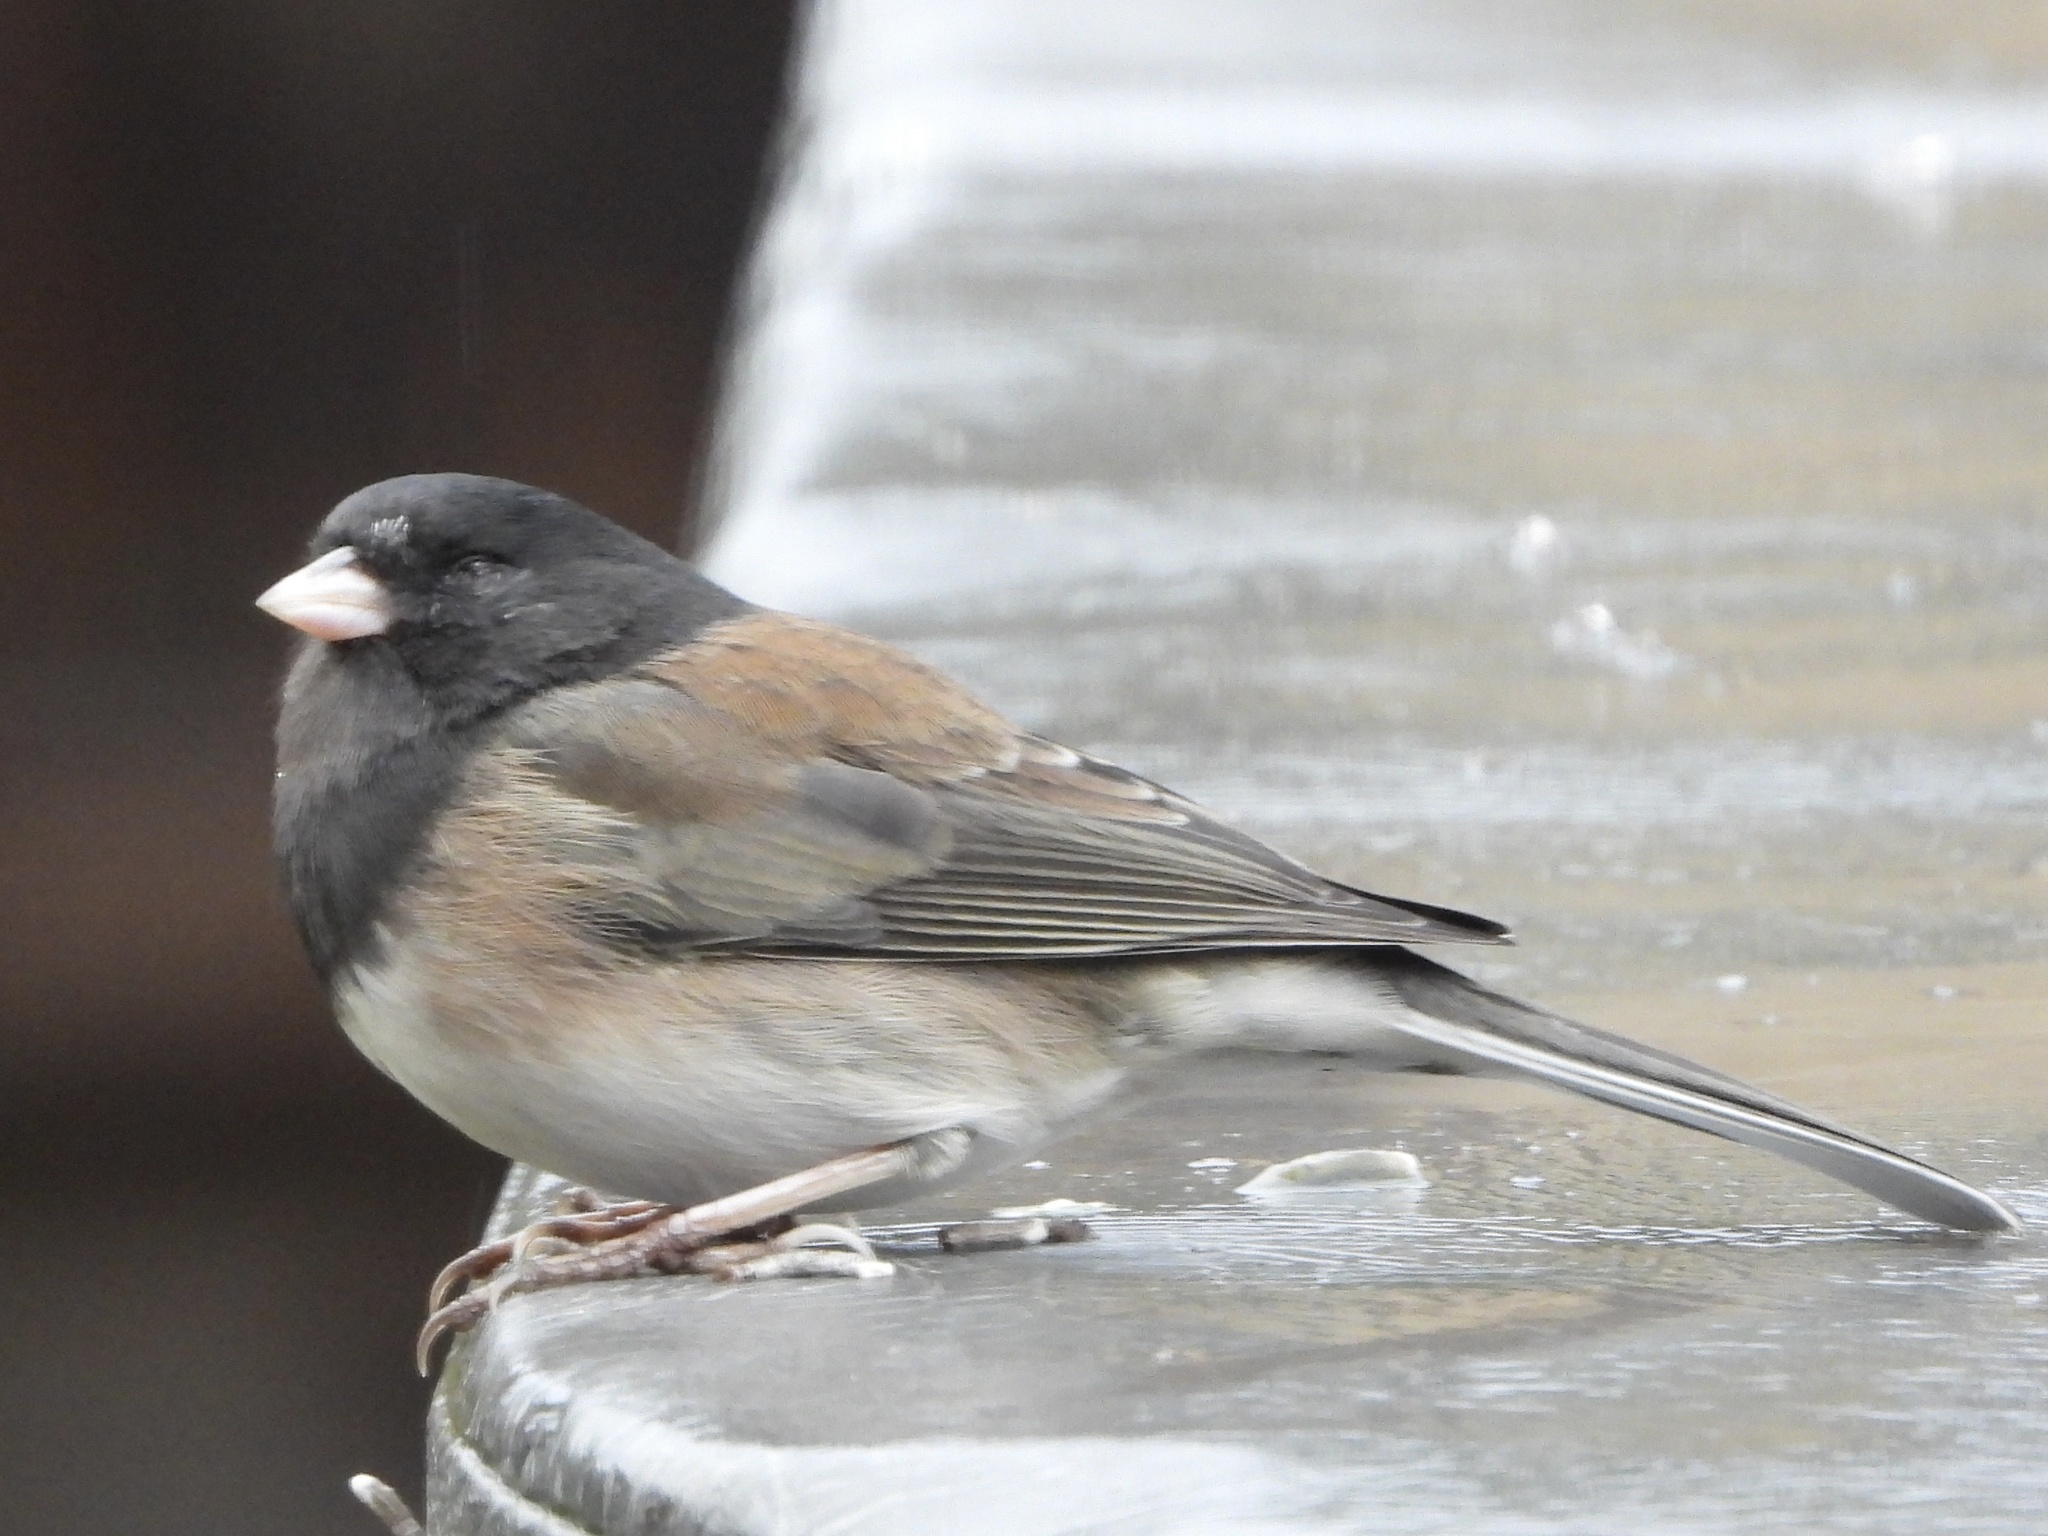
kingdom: Animalia
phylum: Chordata
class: Aves
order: Passeriformes
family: Passerellidae
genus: Junco
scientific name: Junco hyemalis
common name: Dark-eyed junco
